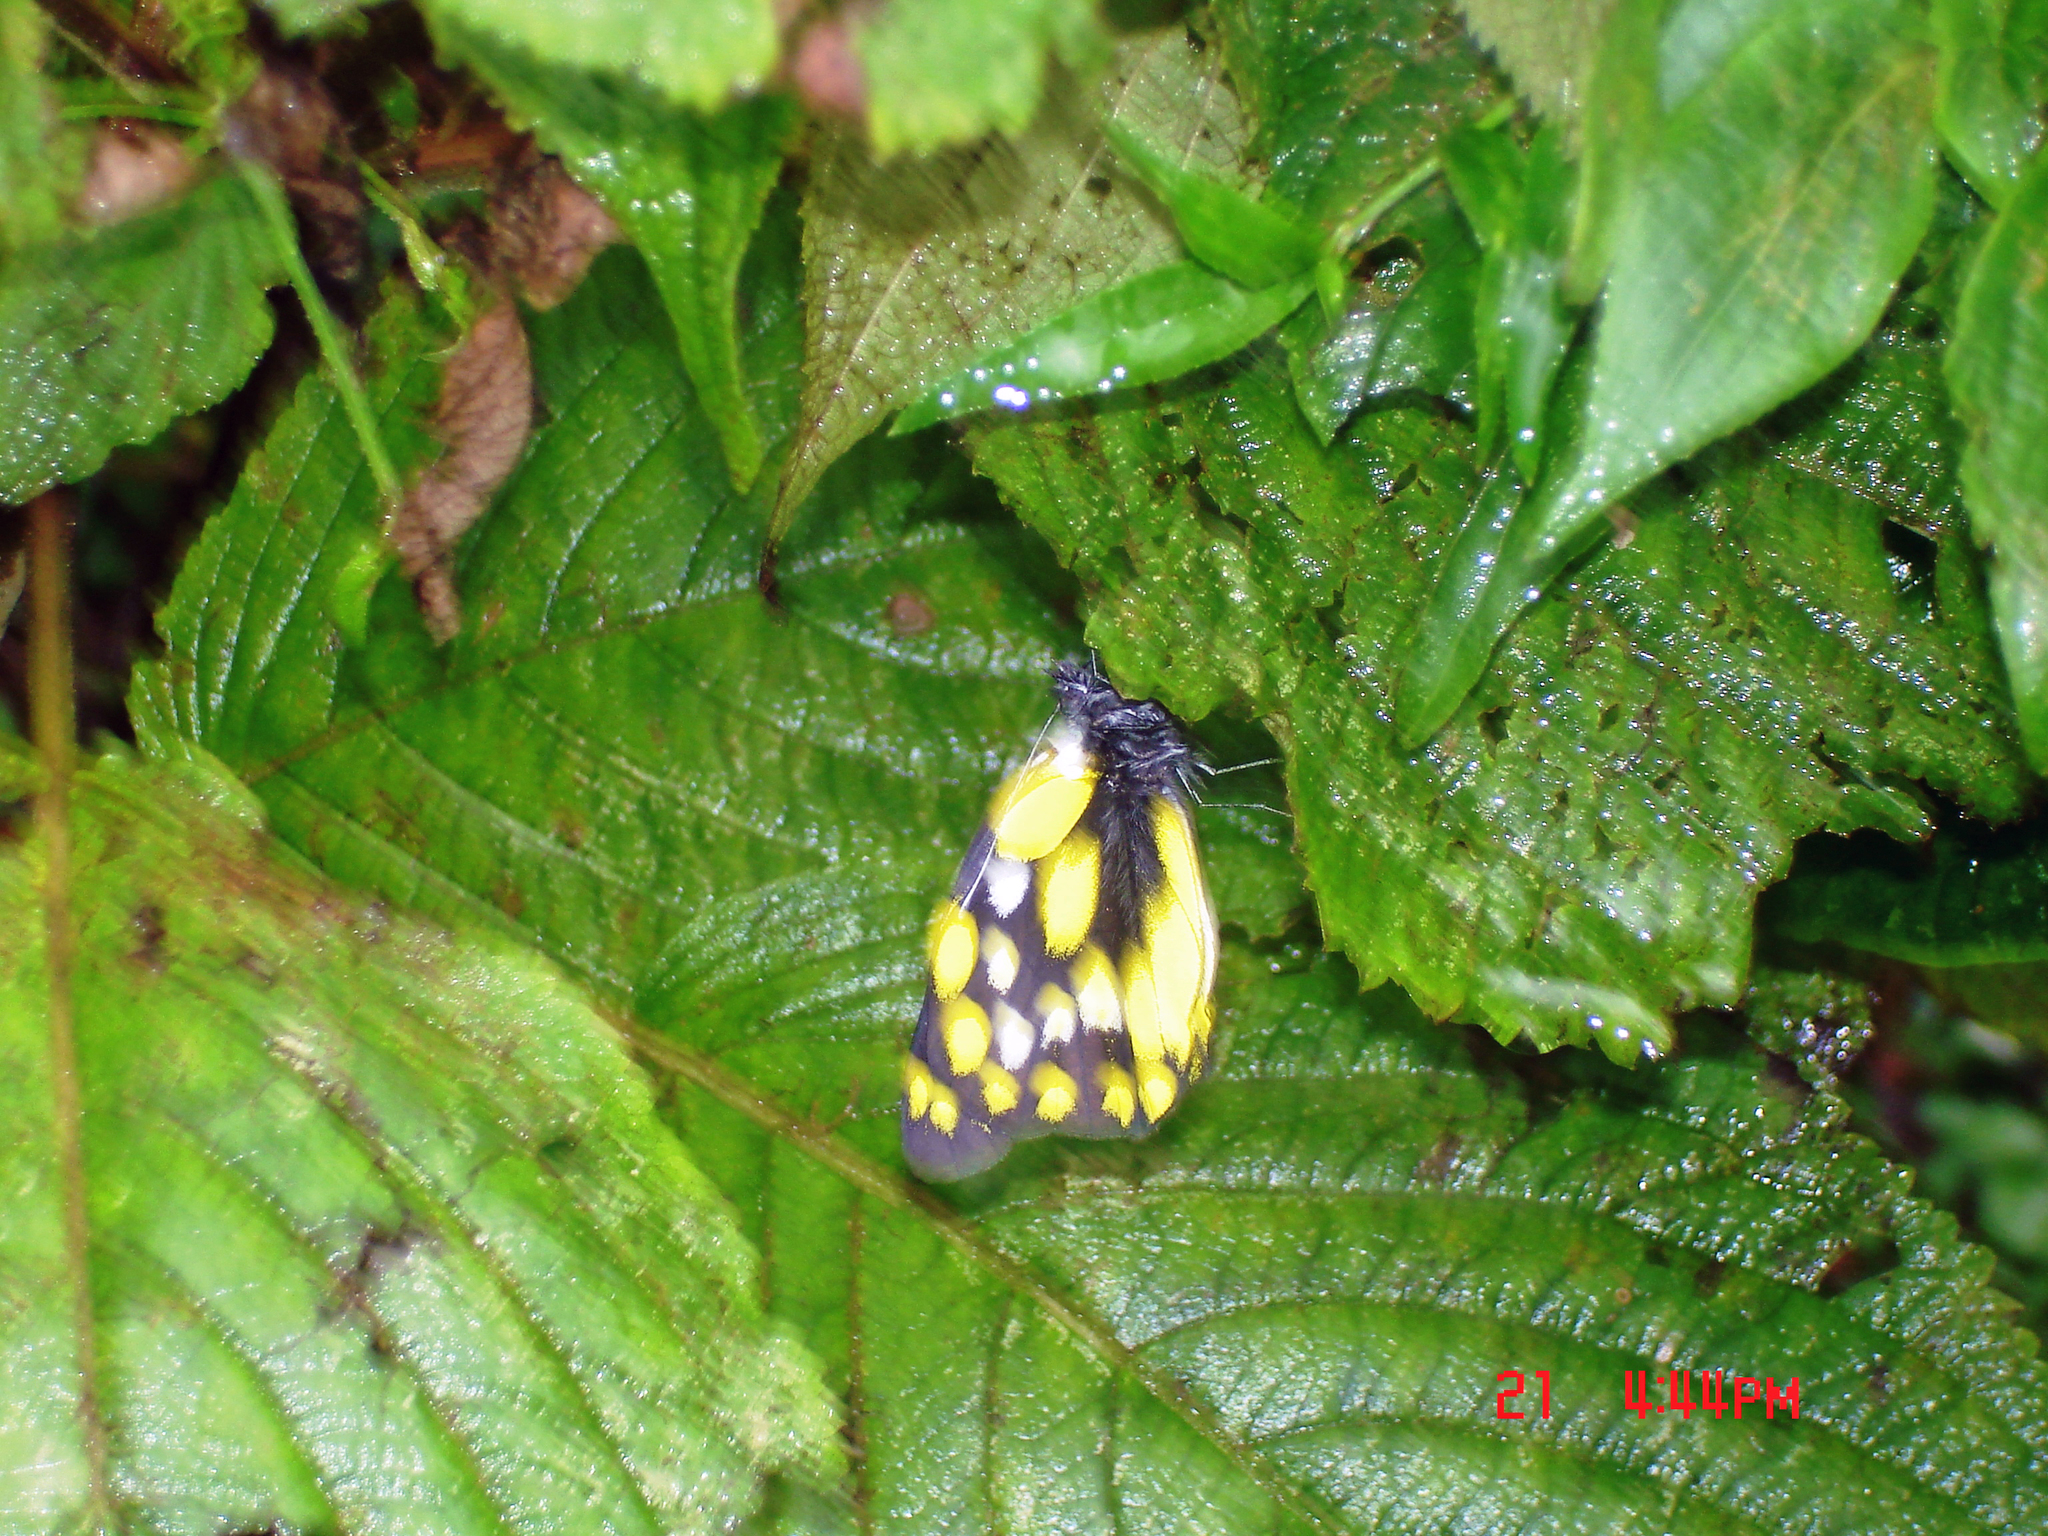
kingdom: Animalia
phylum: Arthropoda
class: Insecta
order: Lepidoptera
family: Pieridae
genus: Delias
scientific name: Delias belladonna
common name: Hill jezebel
